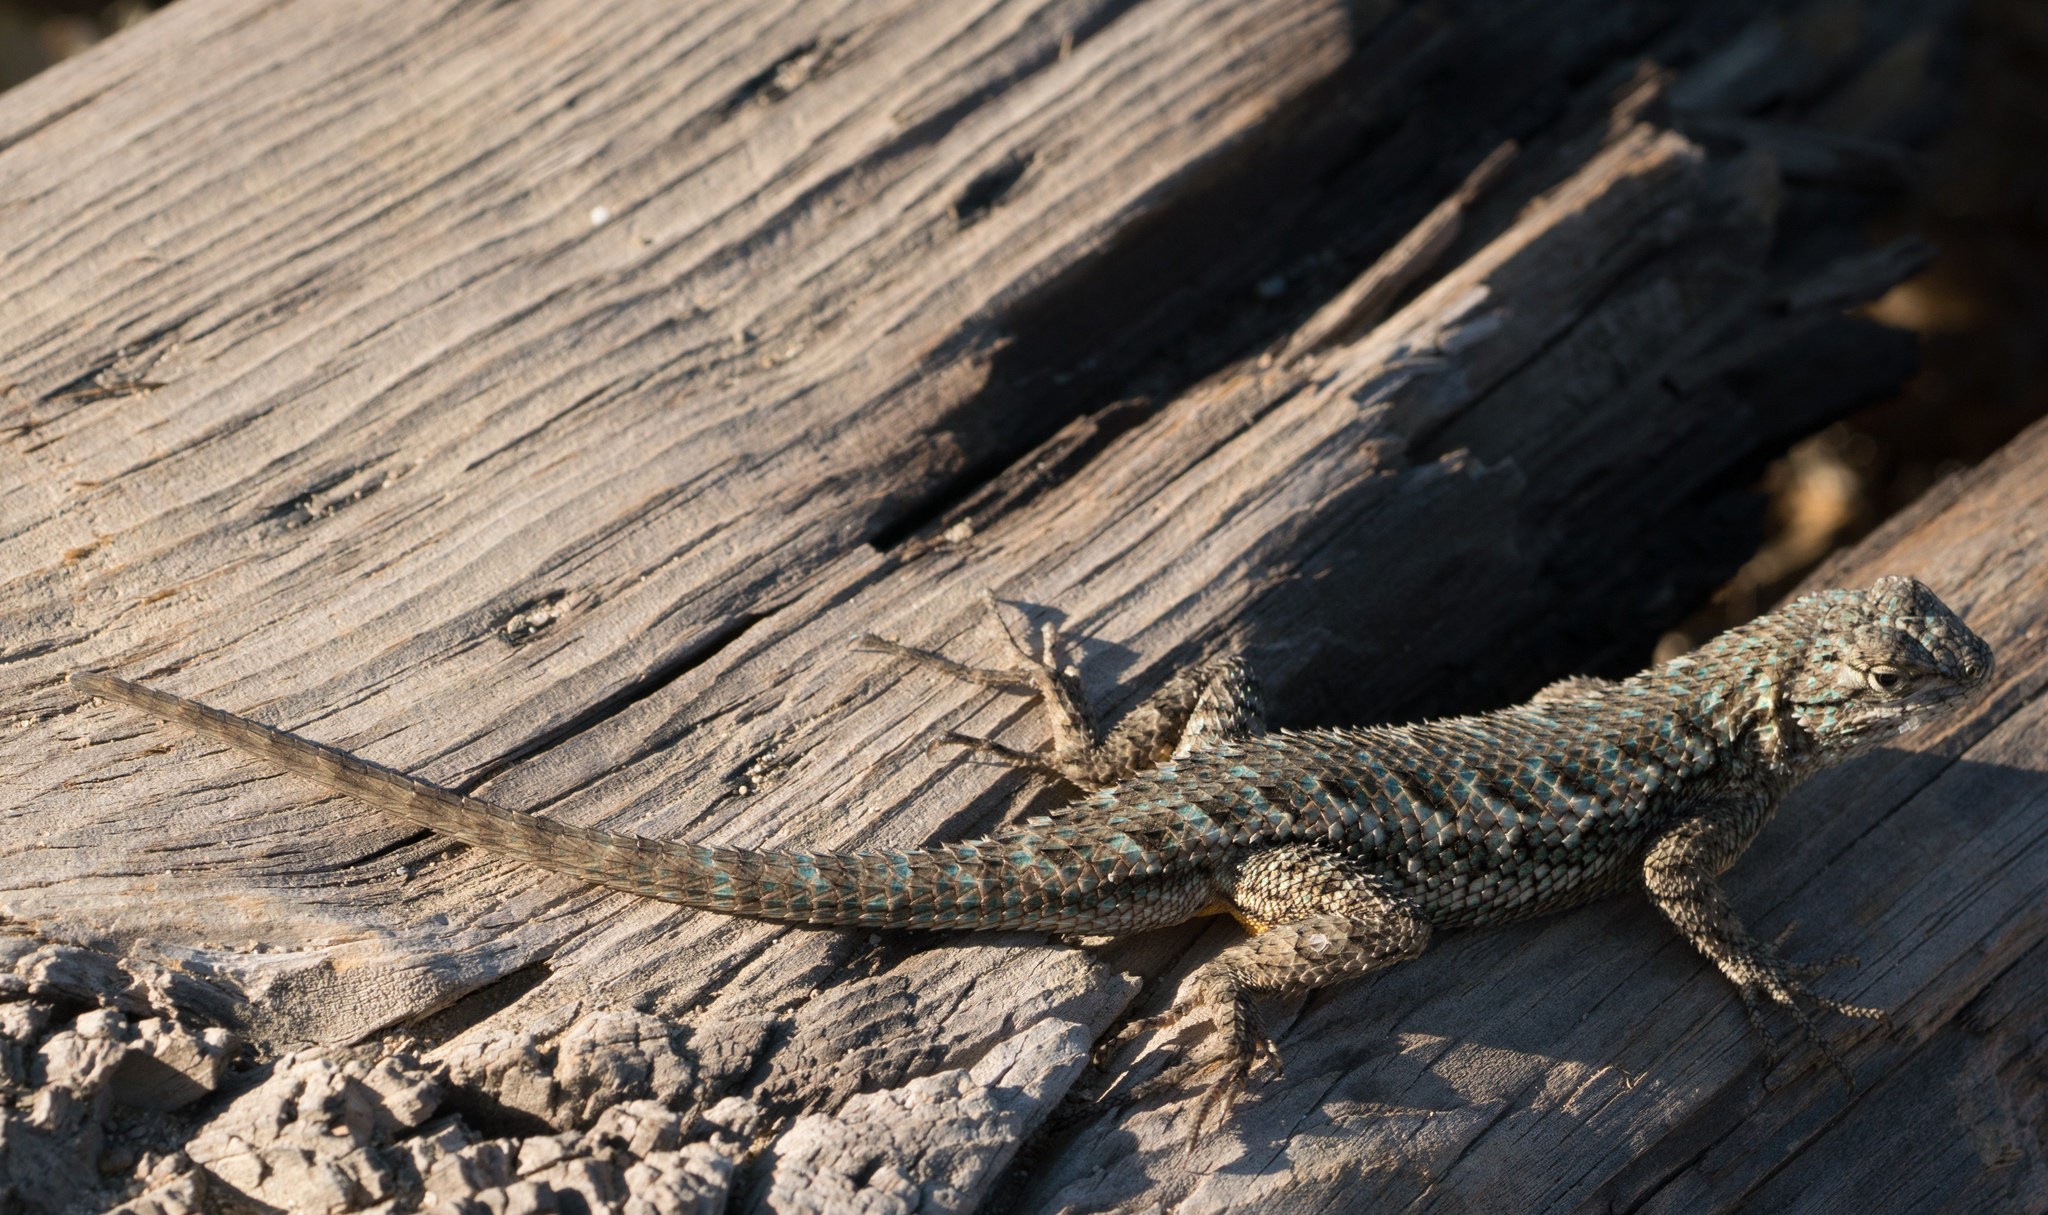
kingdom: Animalia
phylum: Chordata
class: Squamata
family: Phrynosomatidae
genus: Sceloporus
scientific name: Sceloporus occidentalis
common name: Western fence lizard
